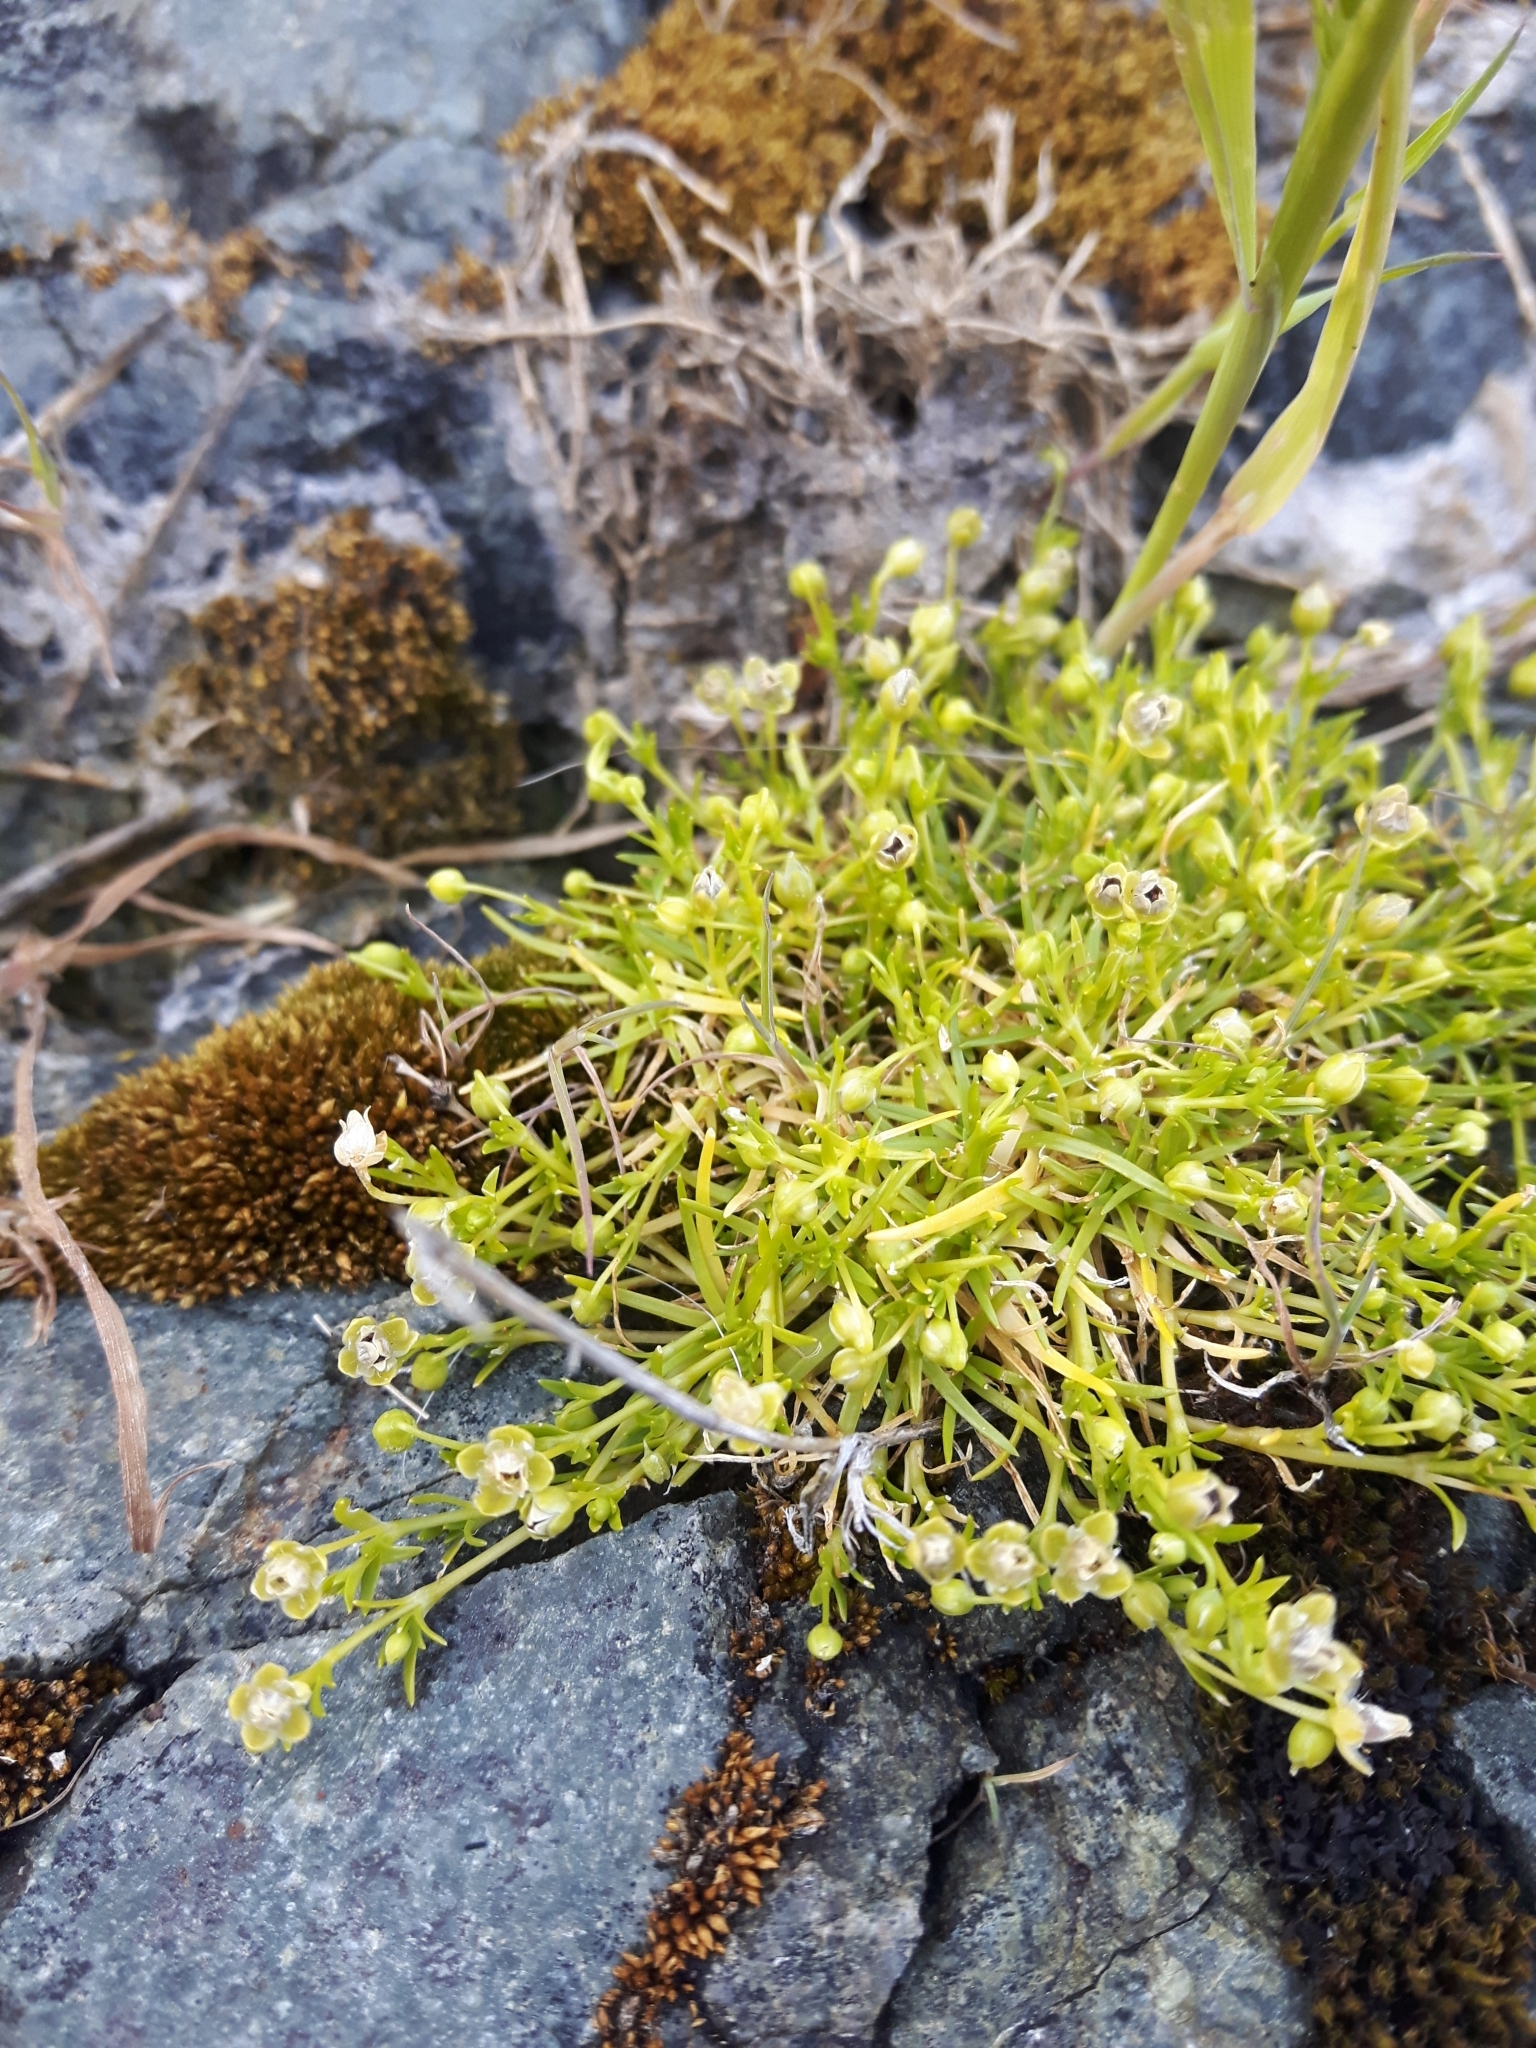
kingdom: Plantae
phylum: Tracheophyta
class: Magnoliopsida
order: Caryophyllales
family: Caryophyllaceae
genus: Sagina
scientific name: Sagina procumbens
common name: Procumbent pearlwort
